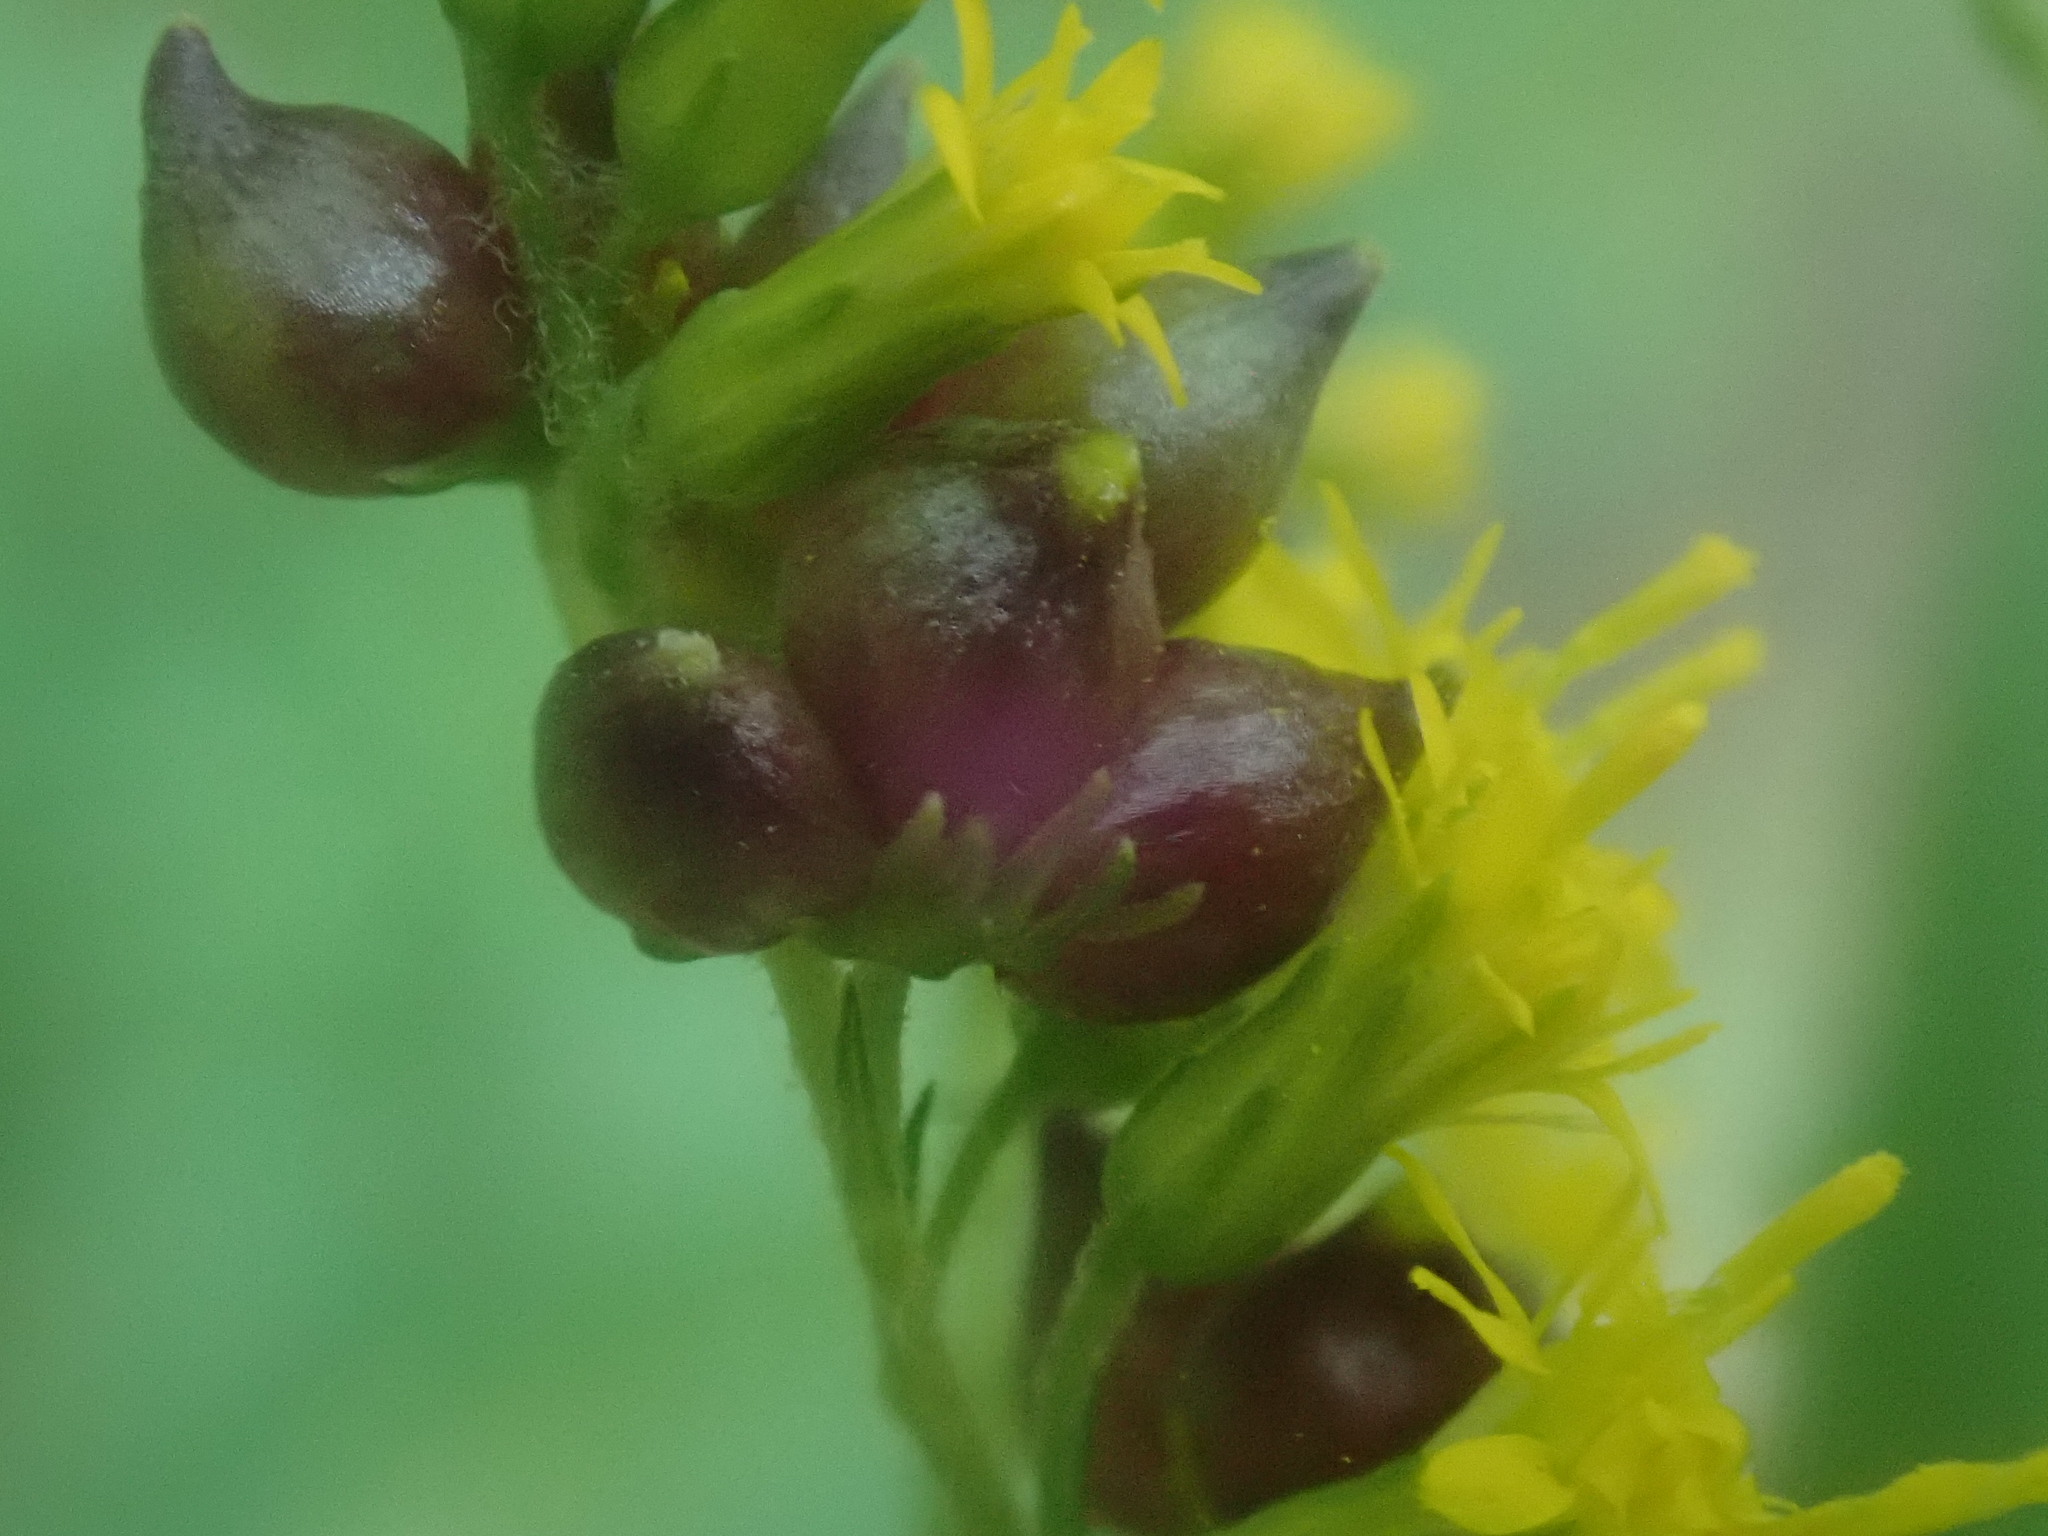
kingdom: Animalia
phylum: Arthropoda
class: Insecta
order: Diptera
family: Cecidomyiidae
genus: Schizomyia
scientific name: Schizomyia racemicola
